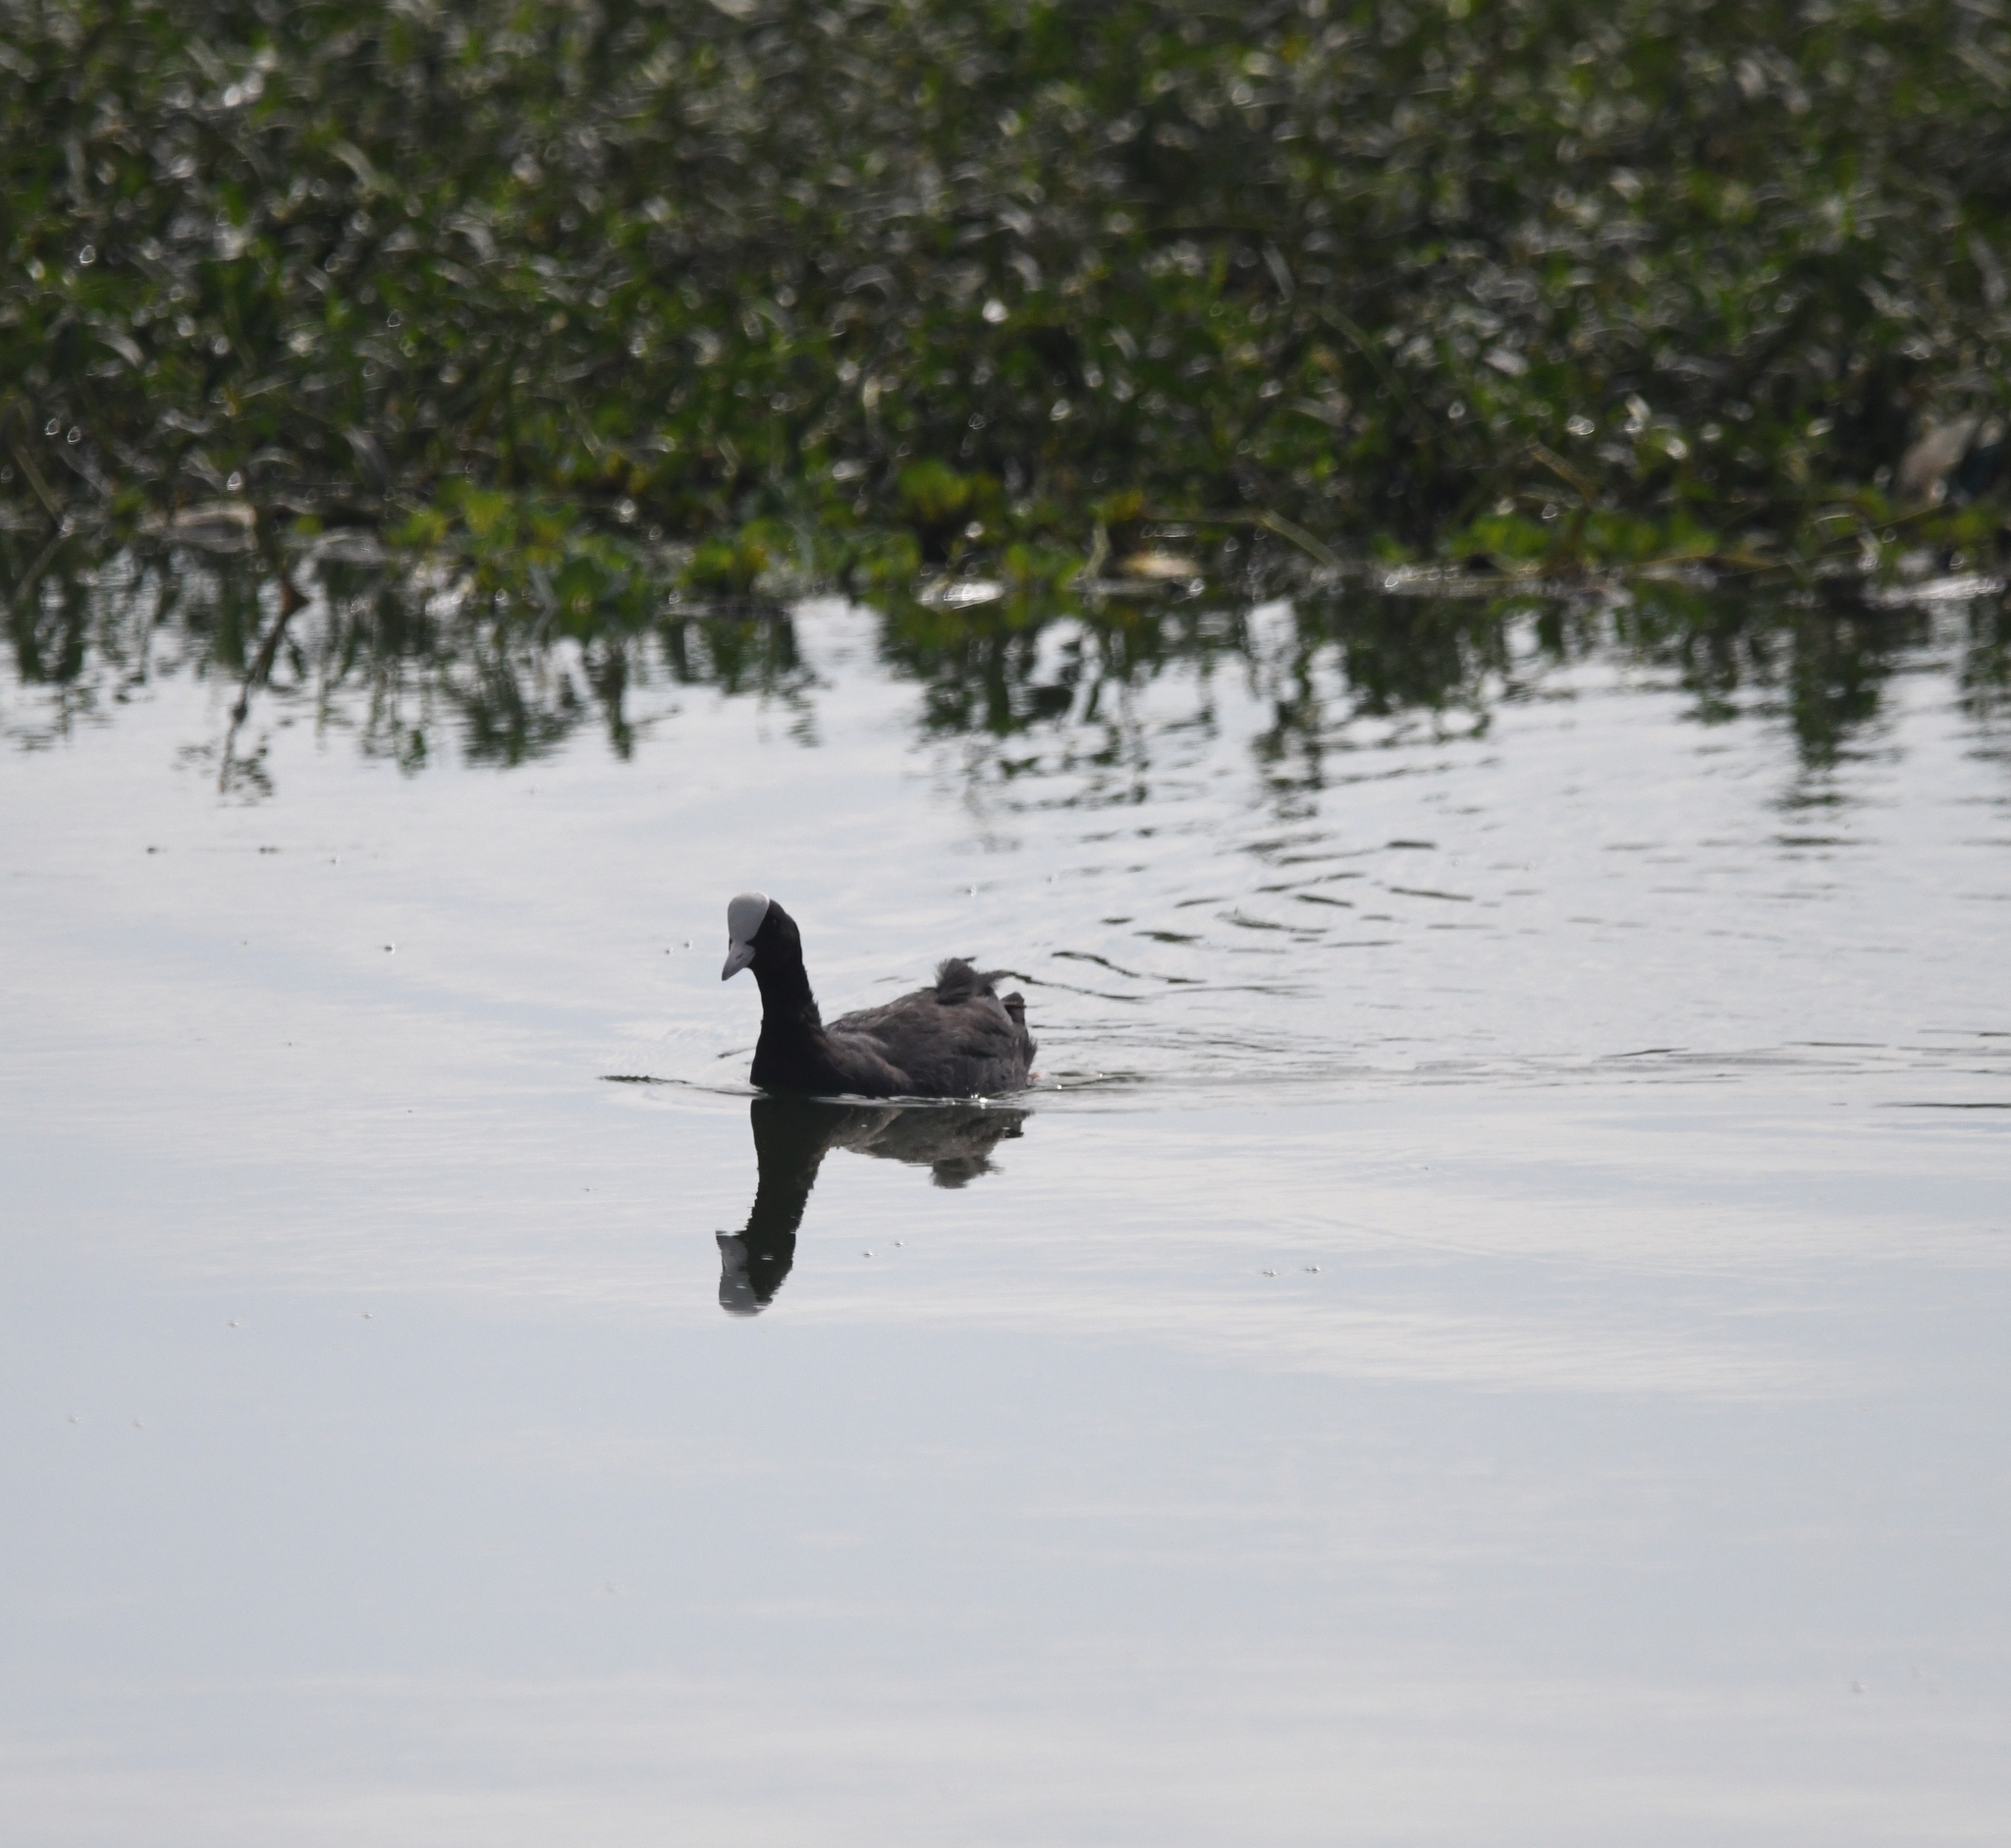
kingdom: Animalia
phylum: Chordata
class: Aves
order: Gruiformes
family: Rallidae
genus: Fulica
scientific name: Fulica atra
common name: Eurasian coot
